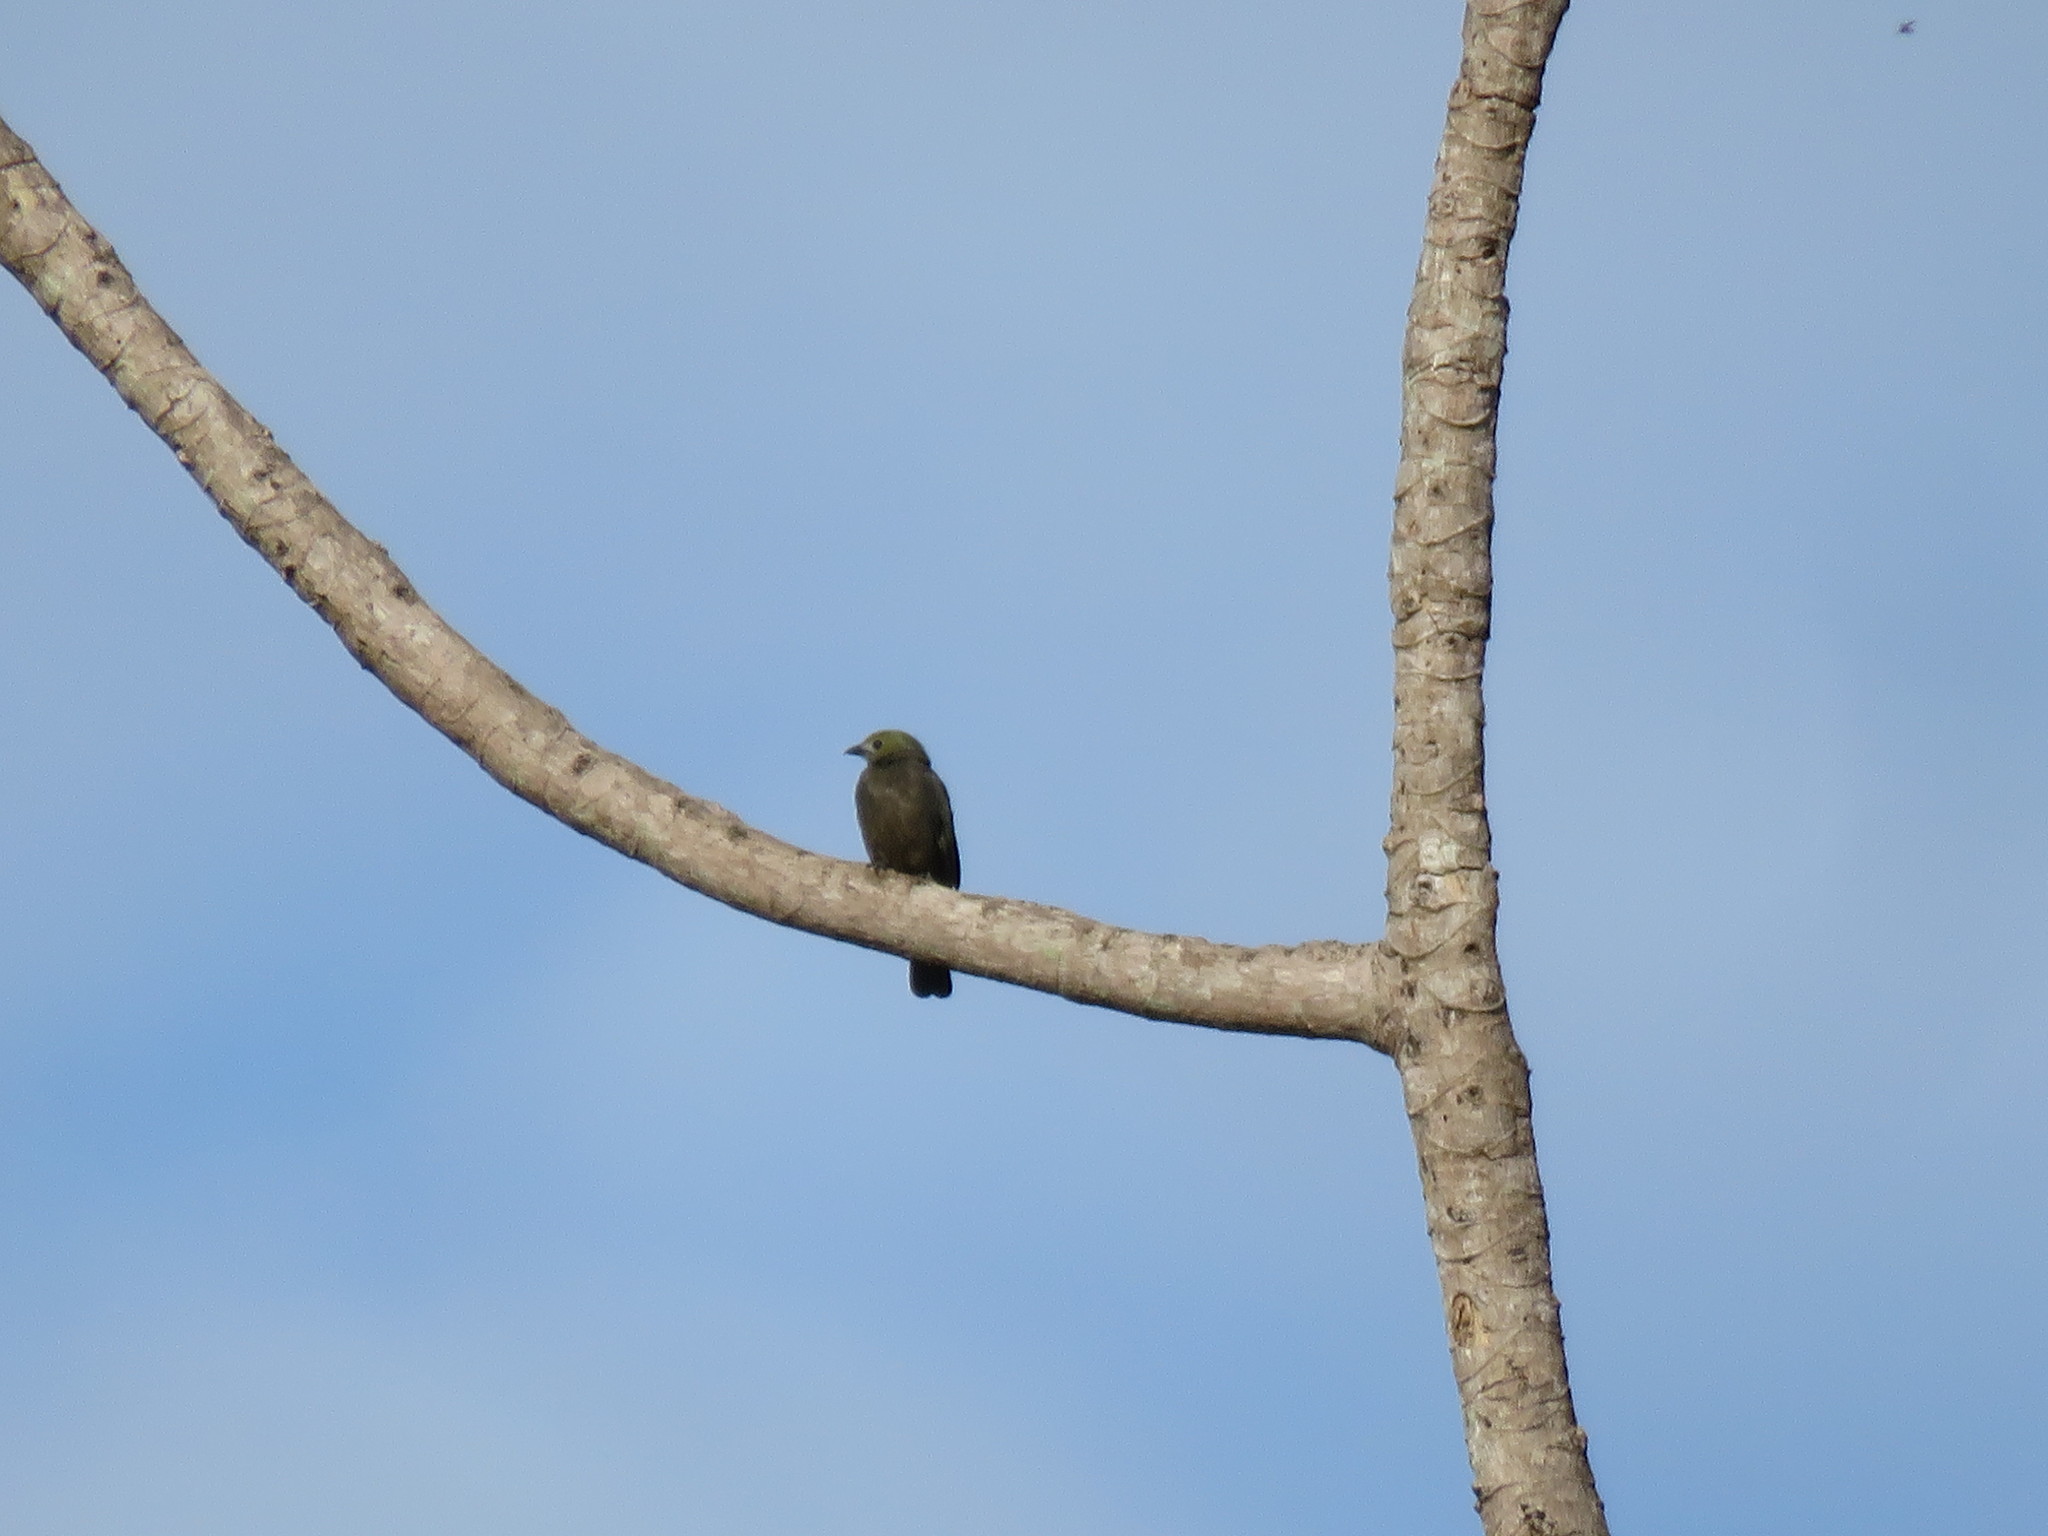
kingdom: Animalia
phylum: Chordata
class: Aves
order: Passeriformes
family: Thraupidae
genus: Thraupis
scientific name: Thraupis palmarum
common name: Palm tanager
